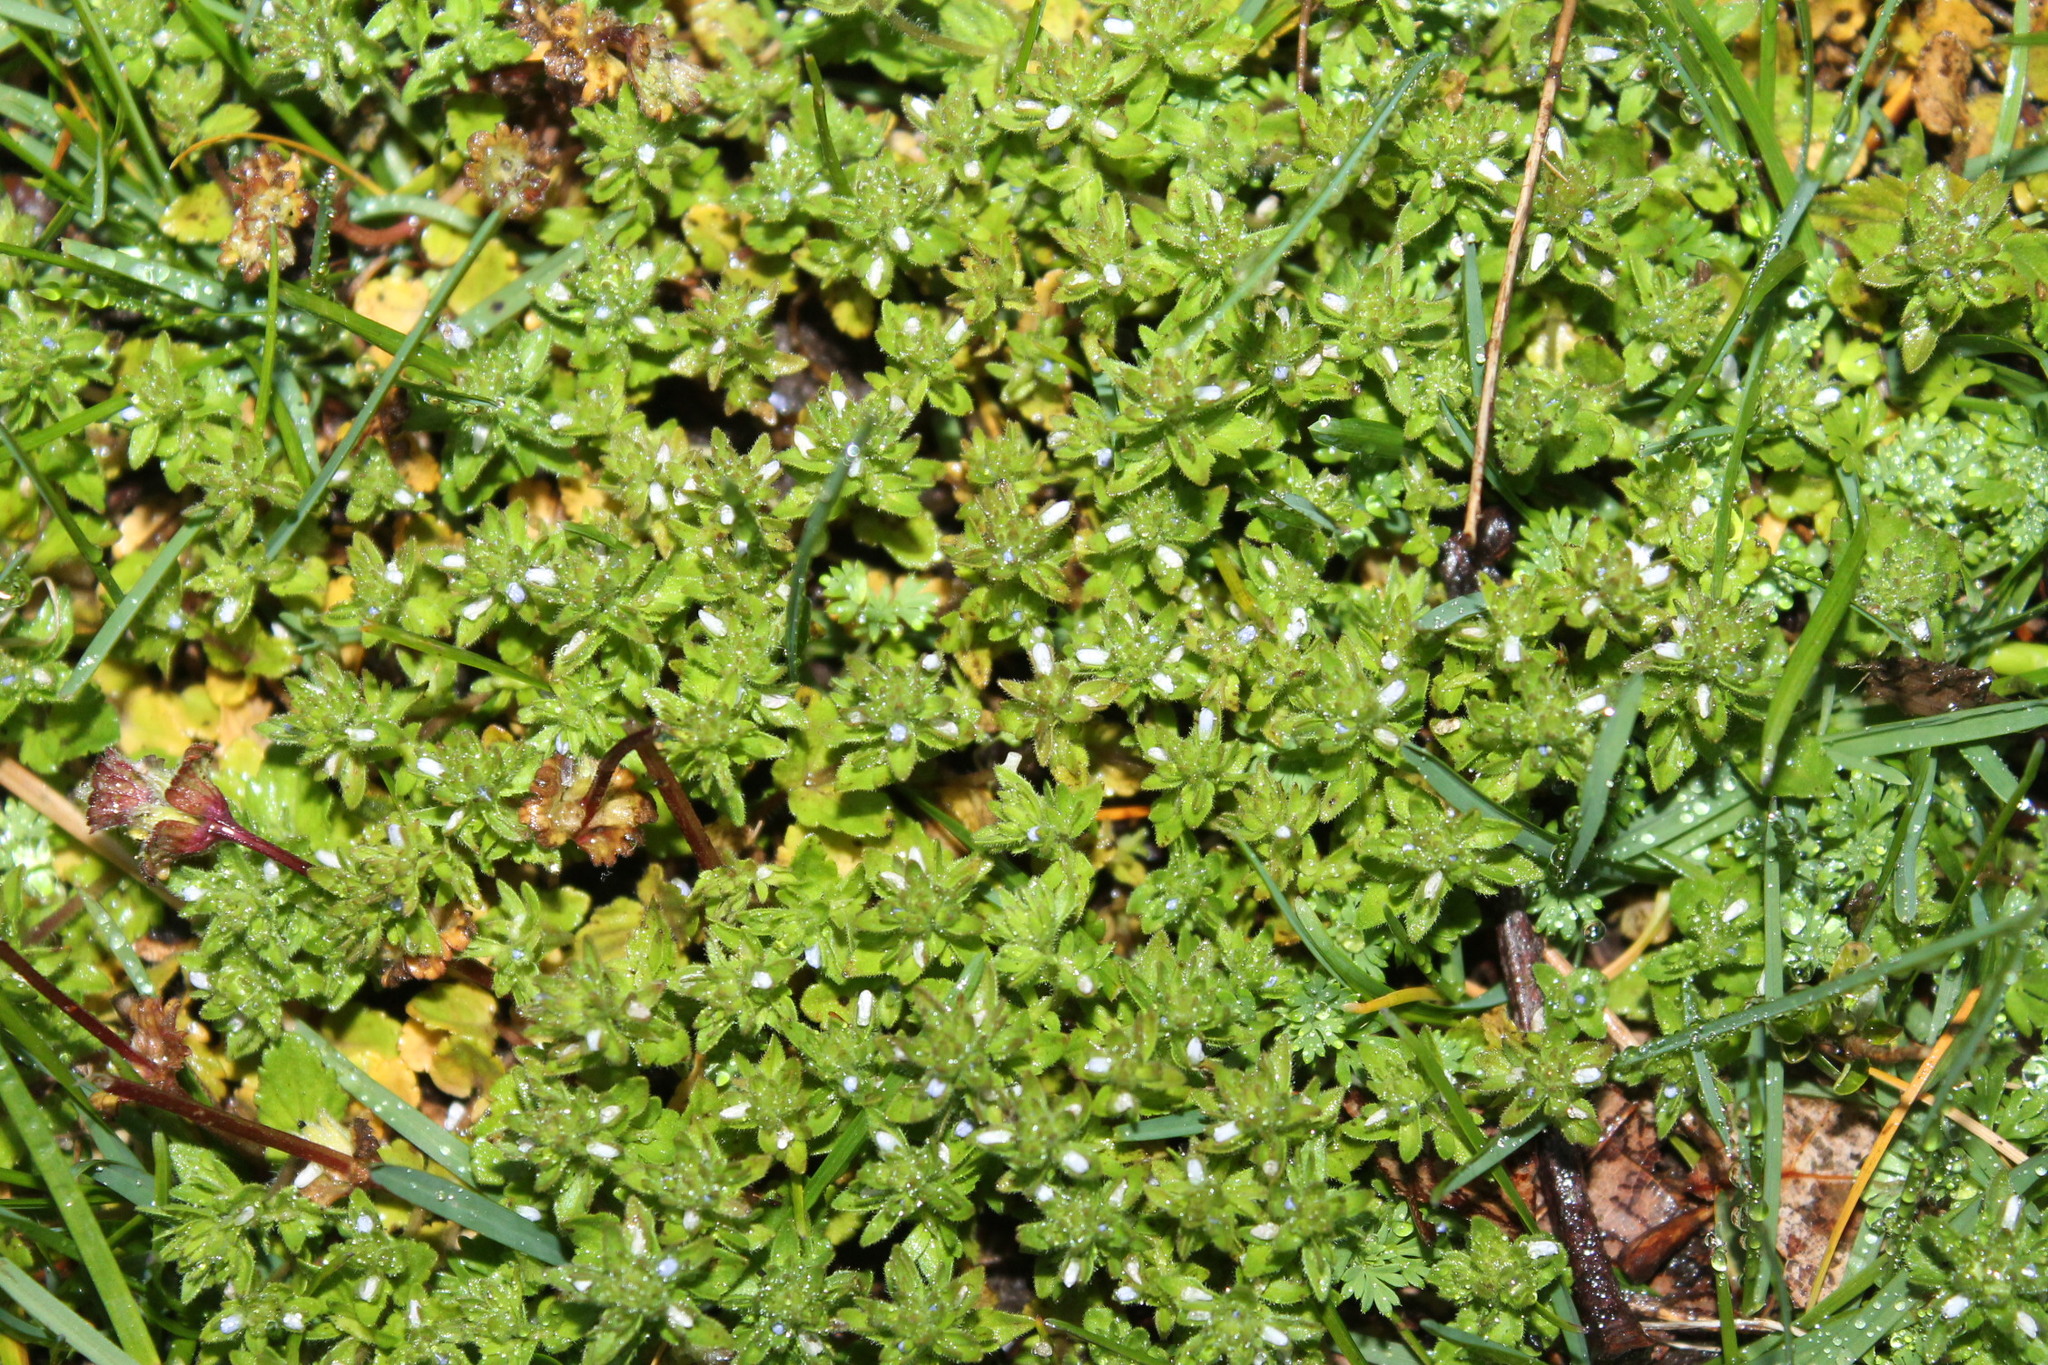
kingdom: Plantae
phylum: Tracheophyta
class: Magnoliopsida
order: Lamiales
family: Plantaginaceae
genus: Veronica
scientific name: Veronica arvensis
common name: Corn speedwell
